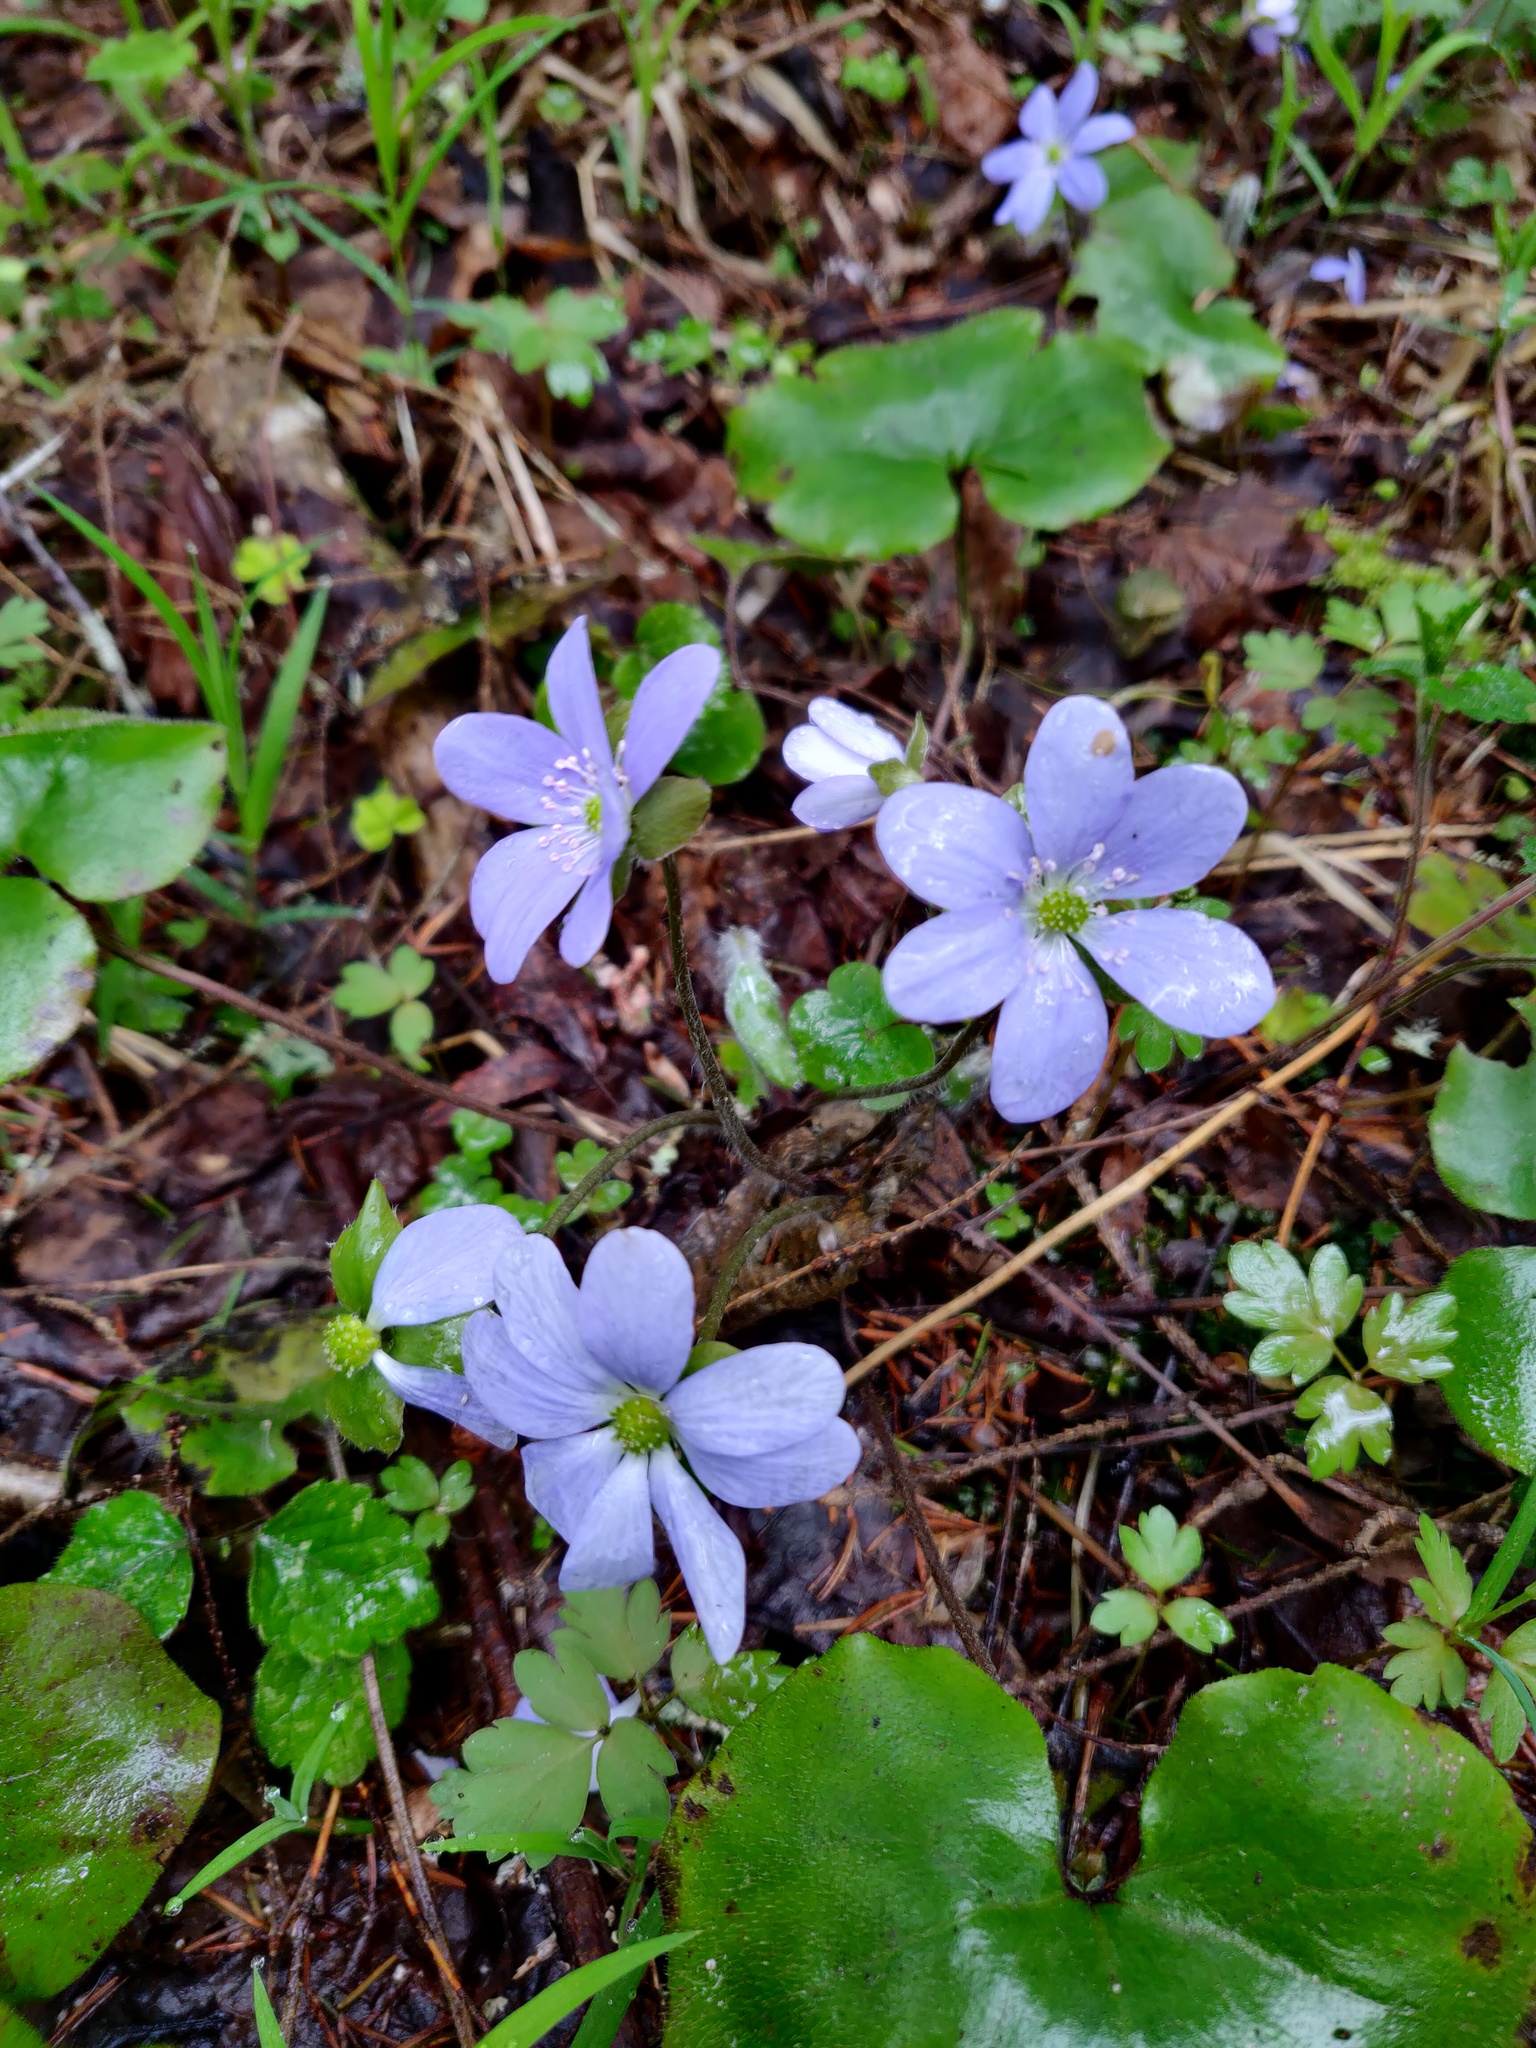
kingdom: Plantae
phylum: Tracheophyta
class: Magnoliopsida
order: Ranunculales
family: Ranunculaceae
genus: Hepatica
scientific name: Hepatica nobilis
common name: Liverleaf
